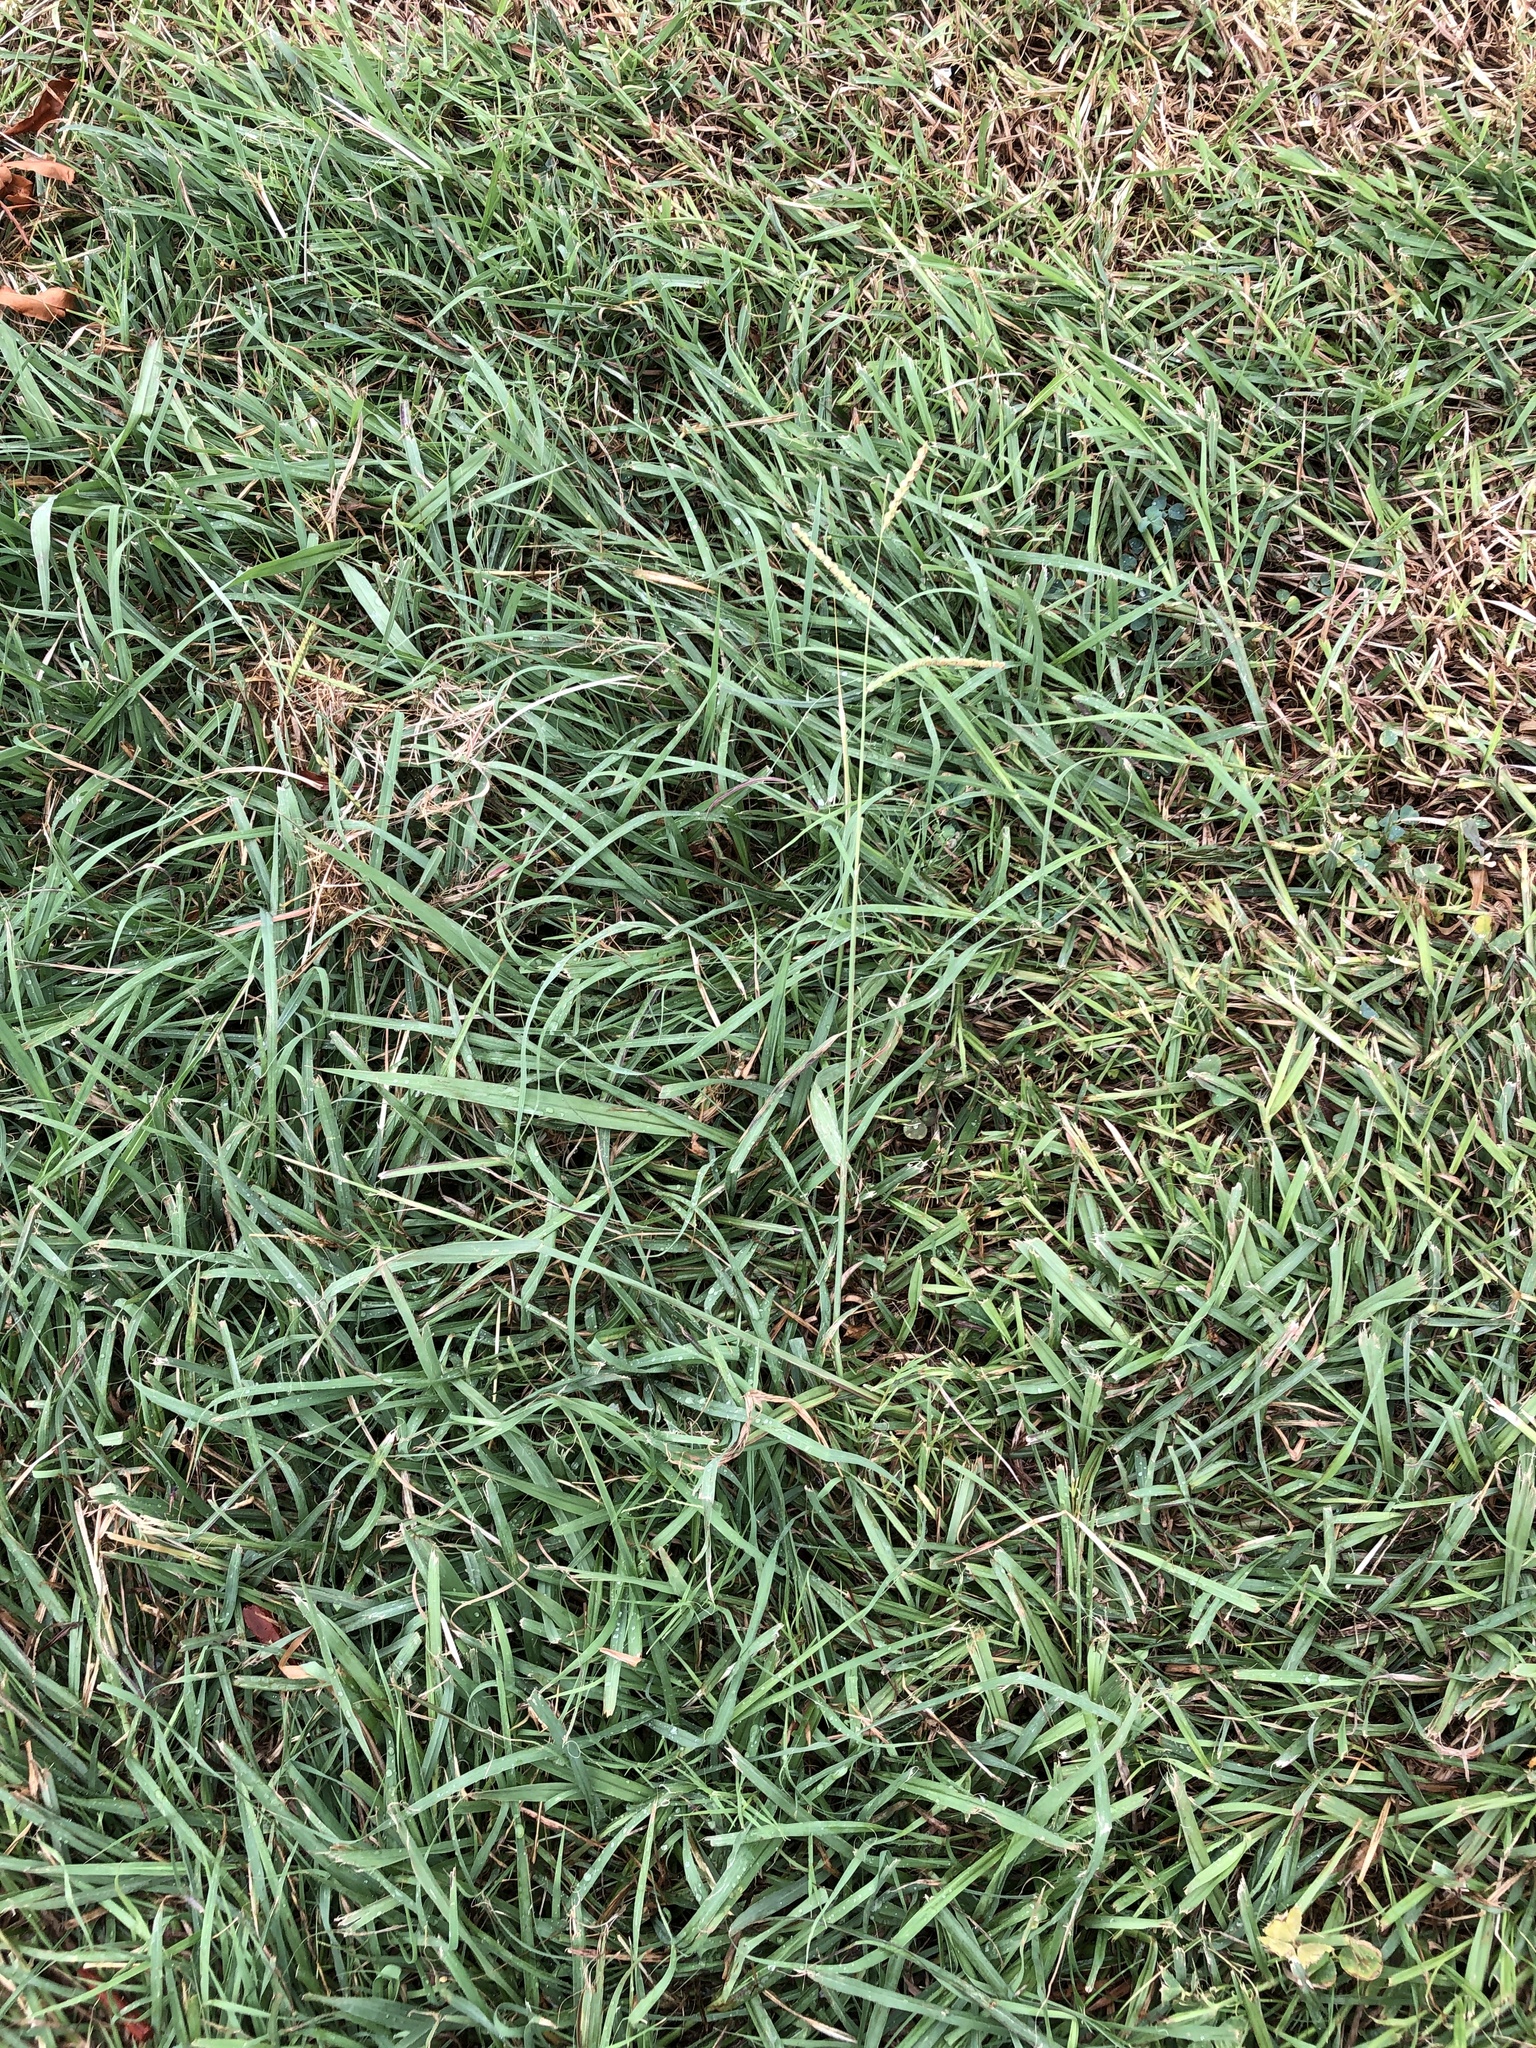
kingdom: Plantae
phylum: Tracheophyta
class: Liliopsida
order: Poales
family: Poaceae
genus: Paspalum
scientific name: Paspalum dilatatum
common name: Dallisgrass
